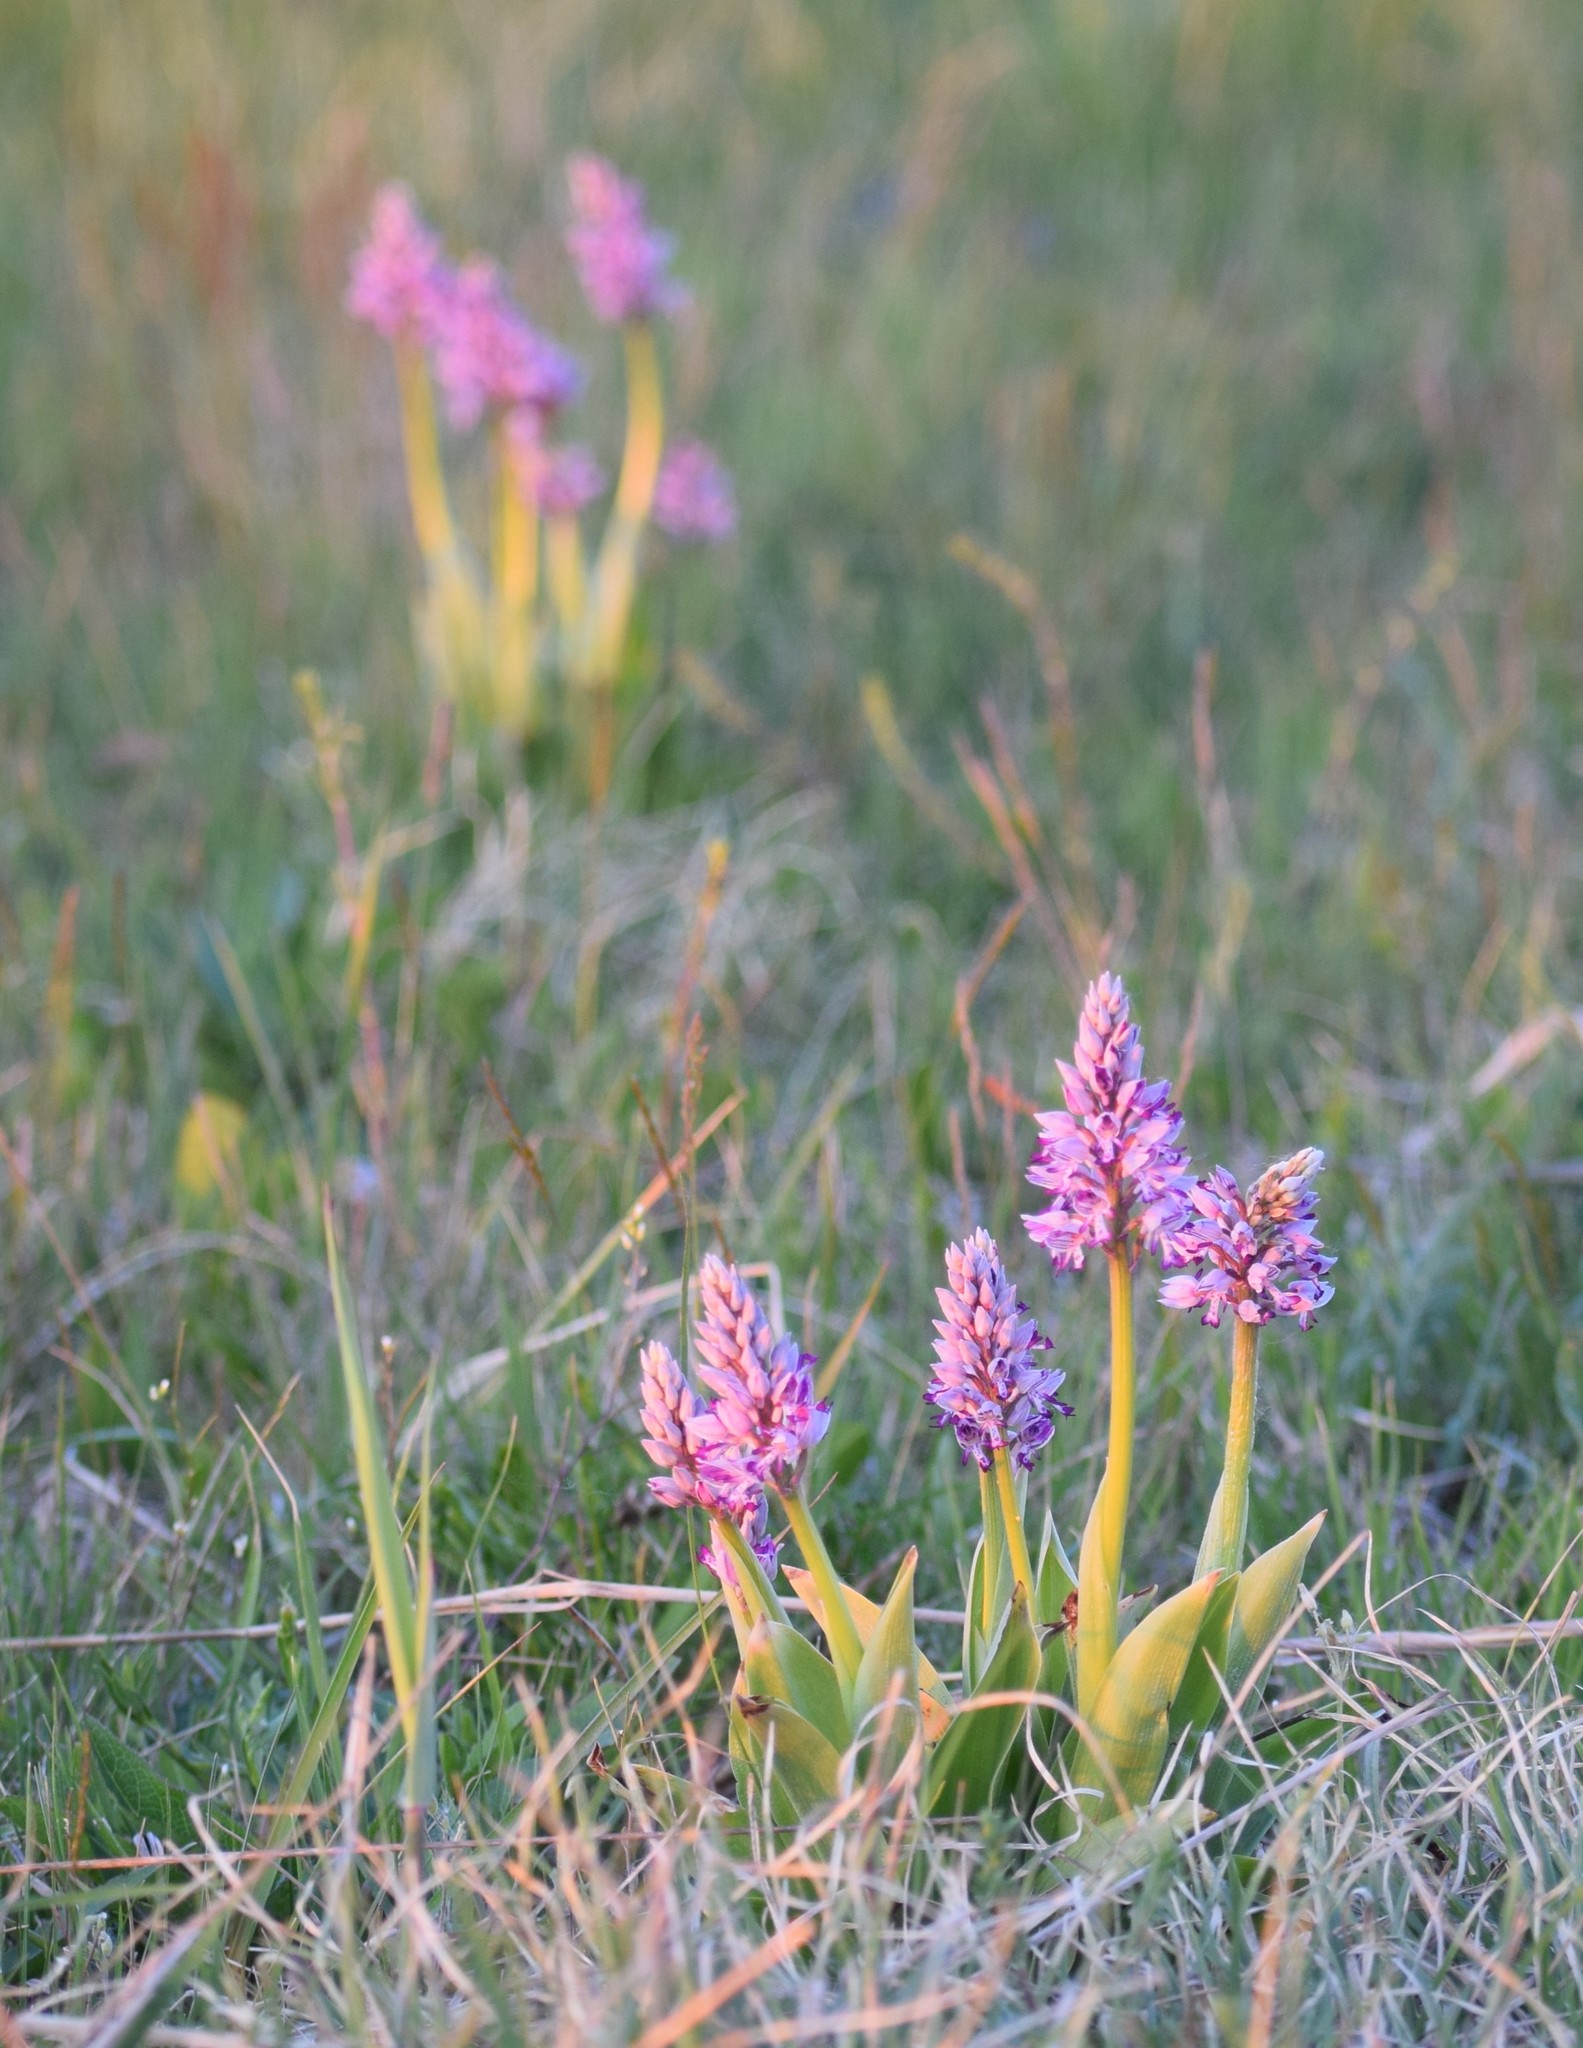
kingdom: Plantae
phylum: Tracheophyta
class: Liliopsida
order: Asparagales
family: Orchidaceae
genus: Orchis
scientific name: Orchis militaris
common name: Military orchid
